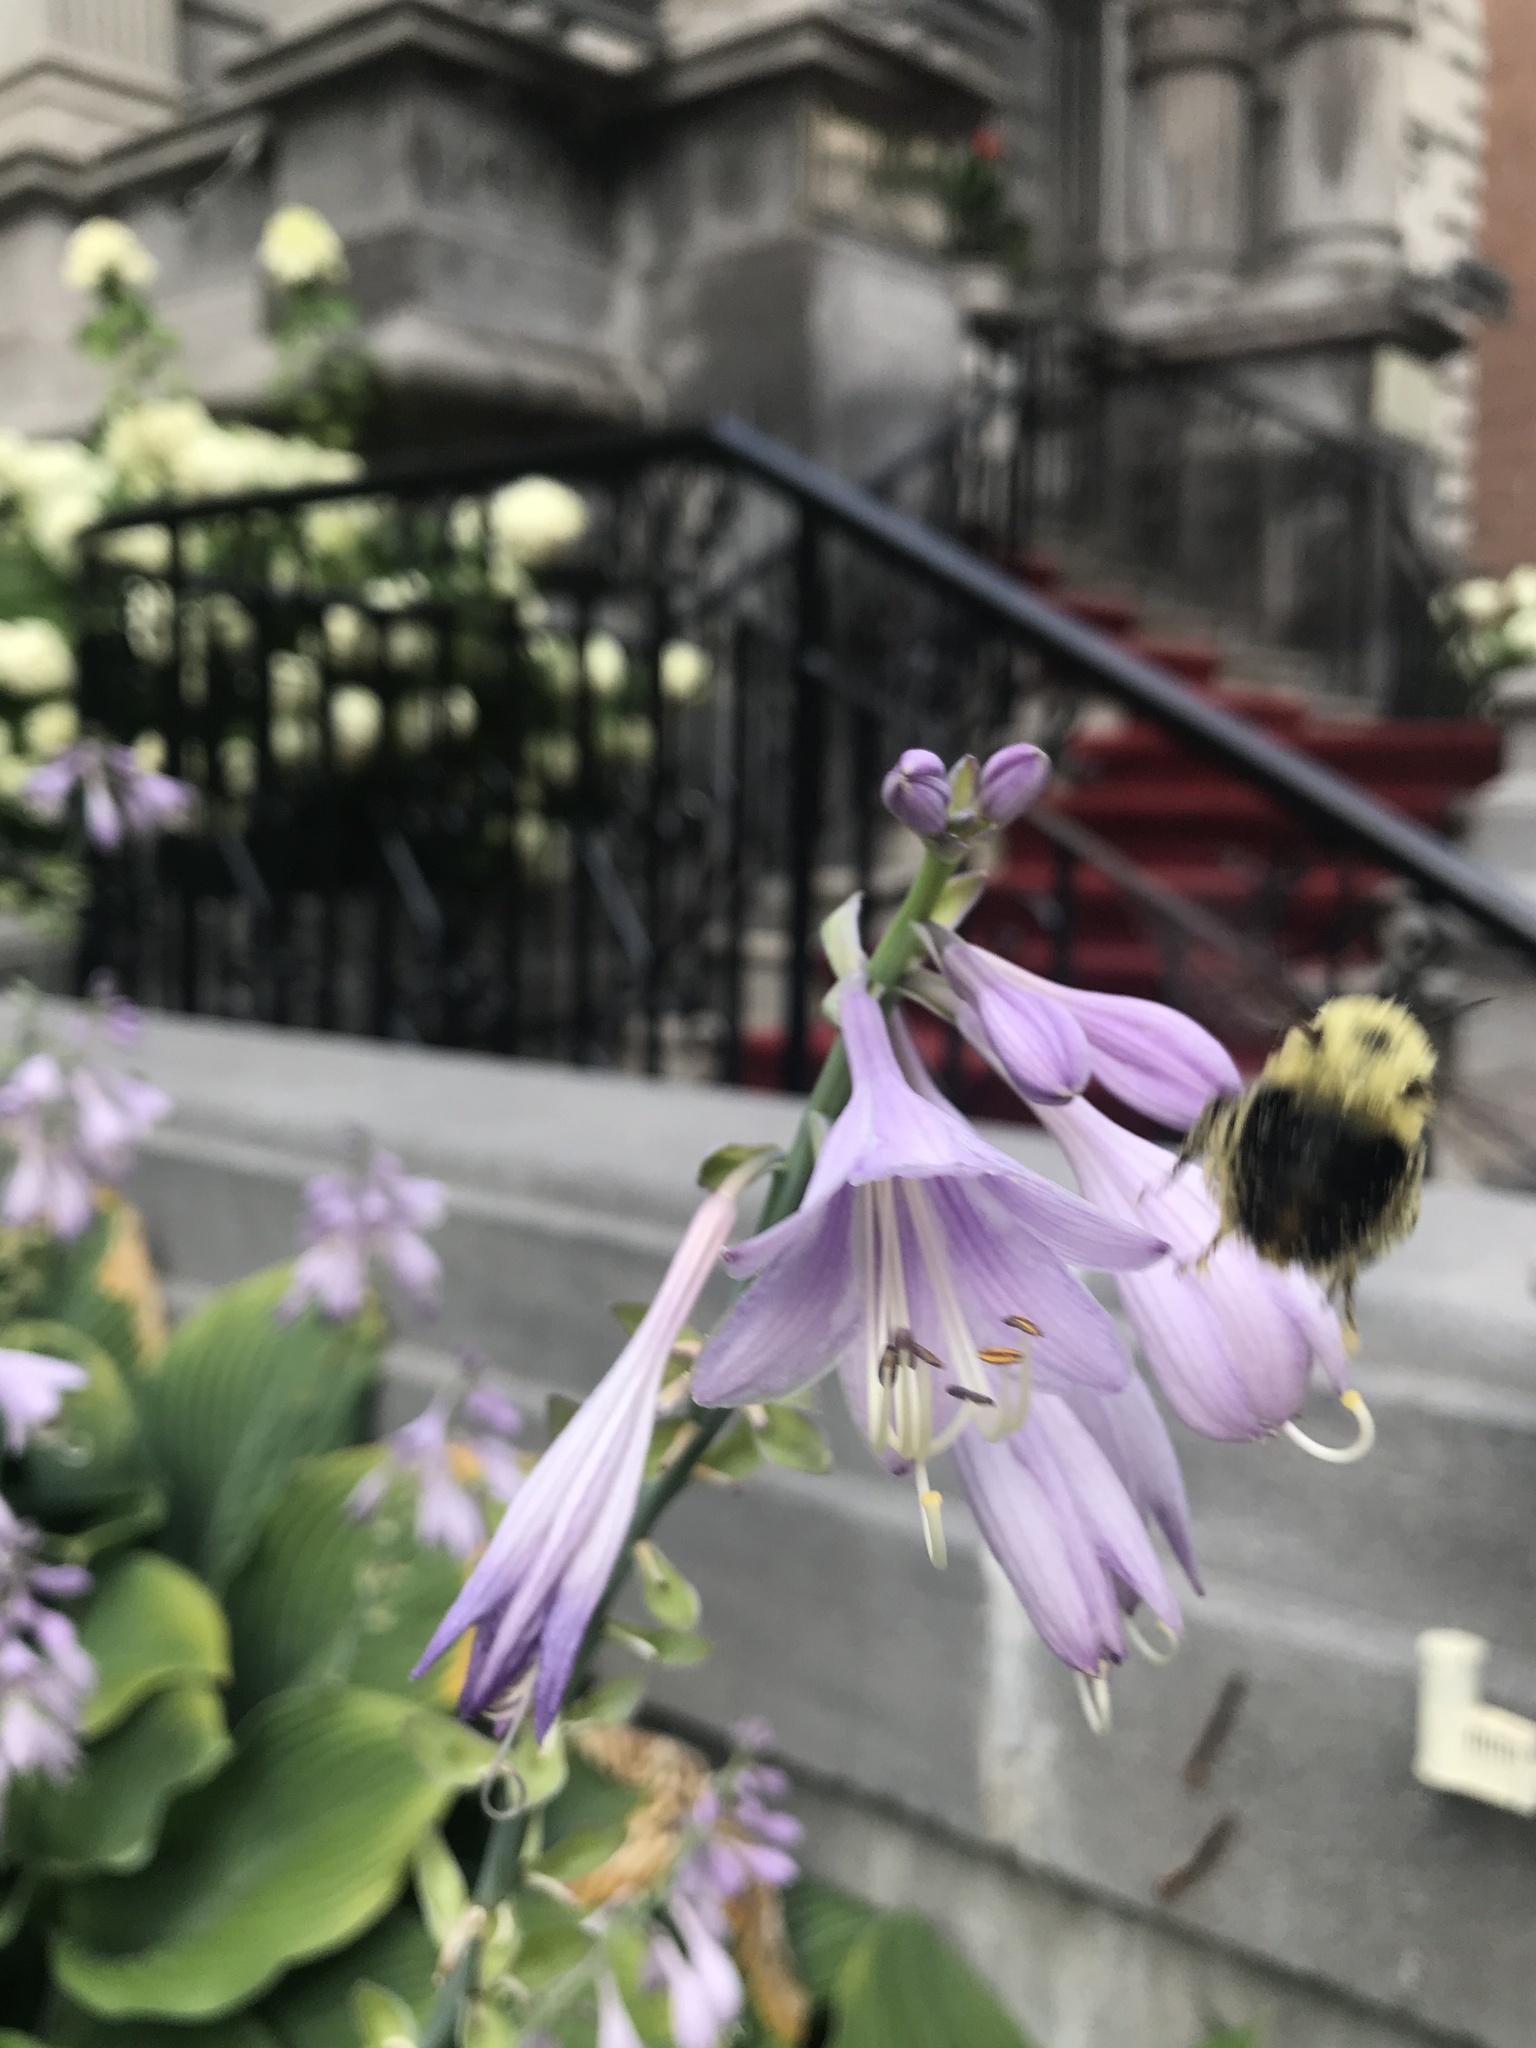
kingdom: Animalia
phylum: Arthropoda
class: Insecta
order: Hymenoptera
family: Apidae
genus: Bombus
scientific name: Bombus bimaculatus
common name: Two-spotted bumble bee
